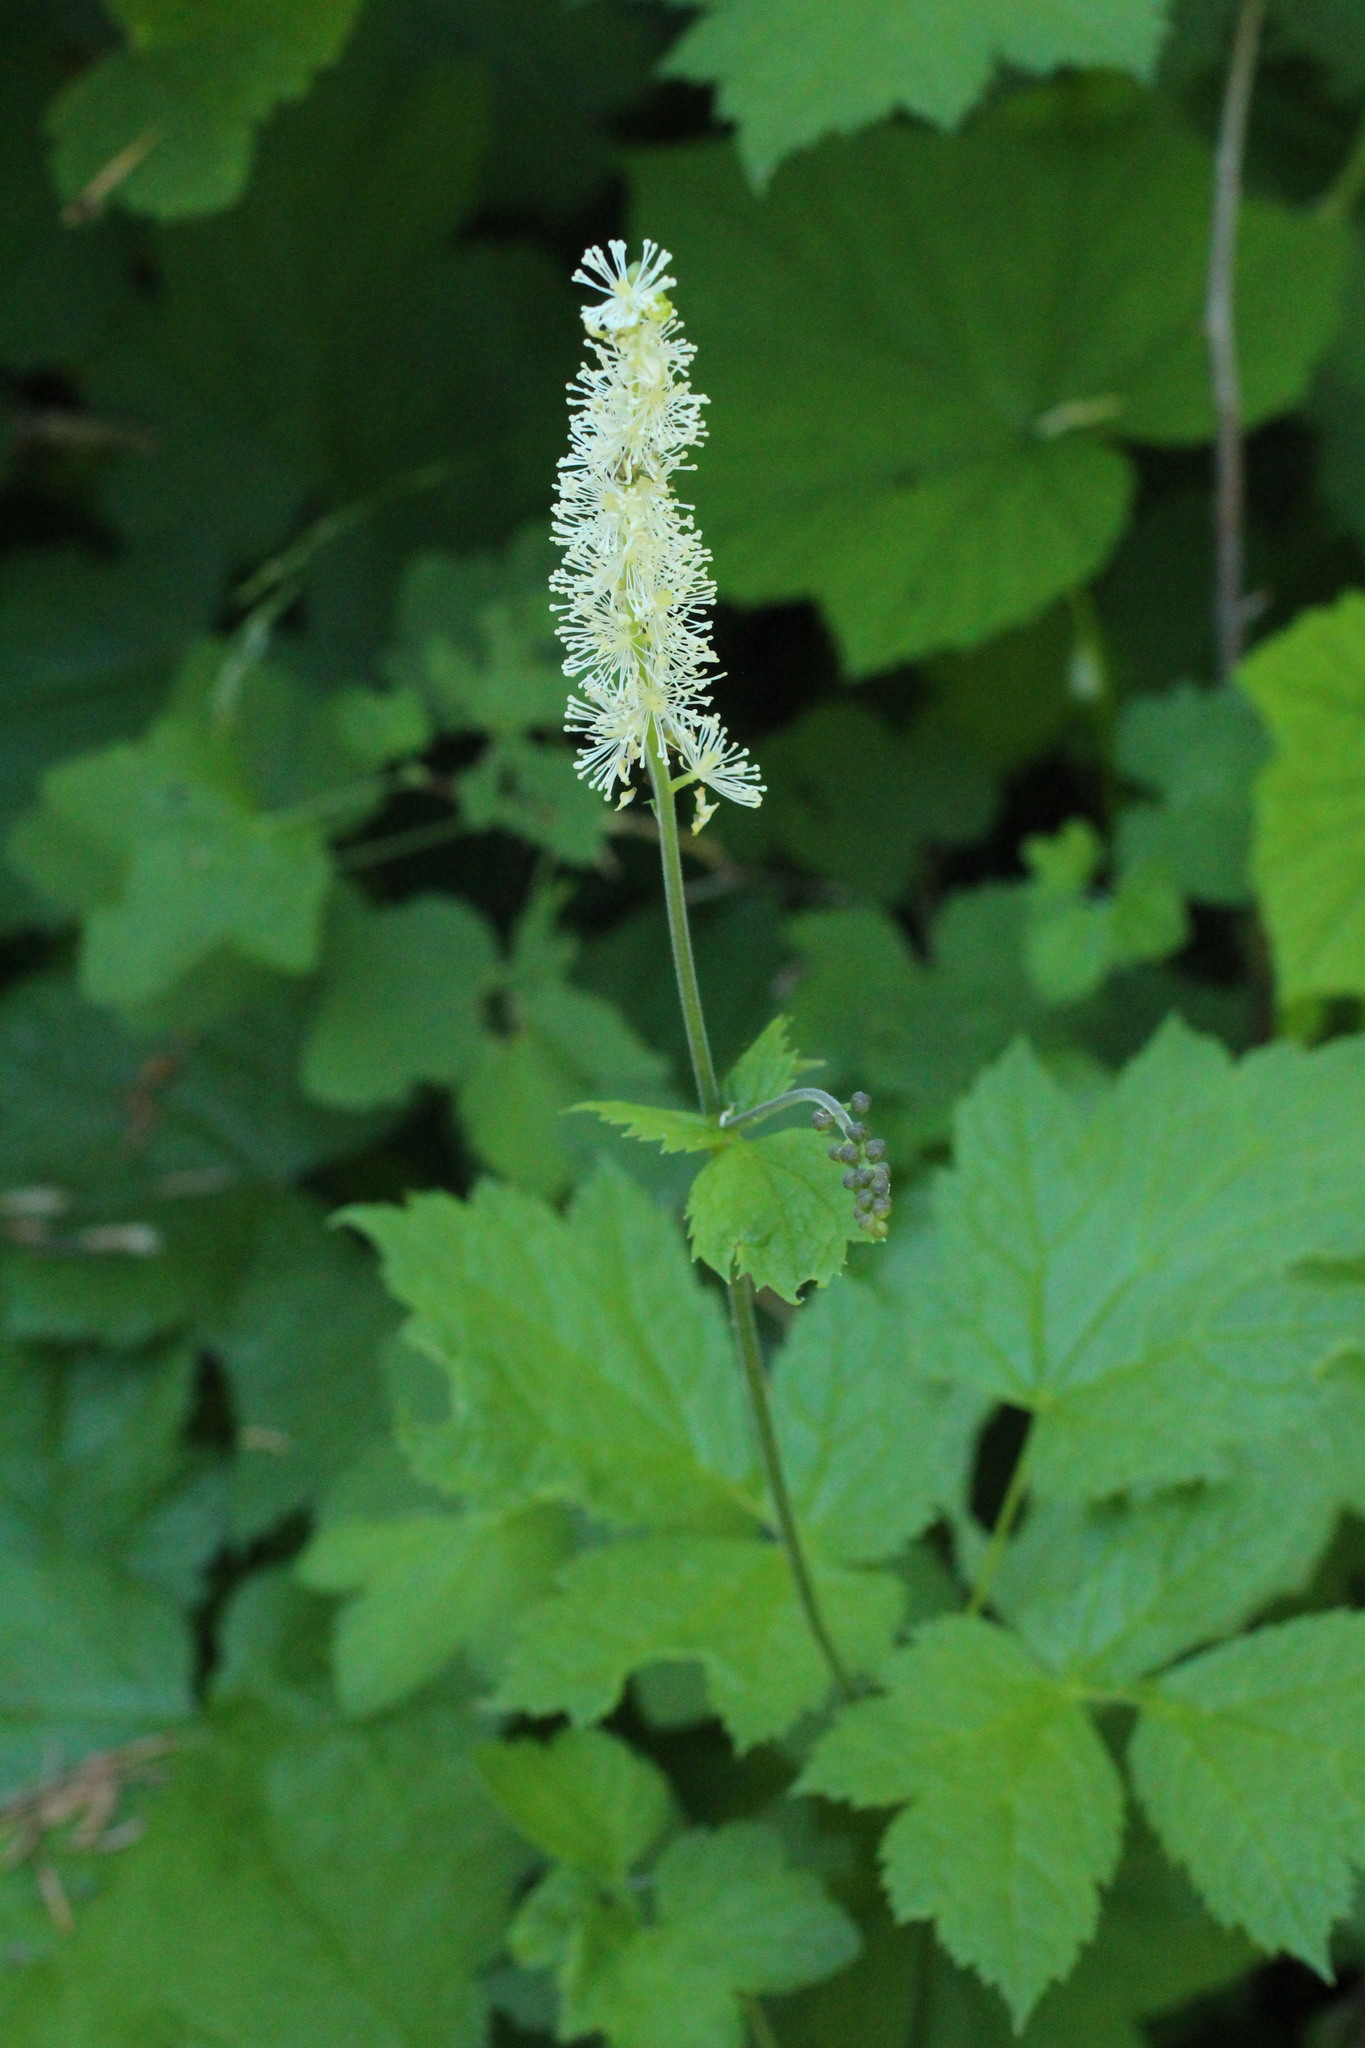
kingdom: Plantae
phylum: Tracheophyta
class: Magnoliopsida
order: Ranunculales
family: Ranunculaceae
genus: Actaea
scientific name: Actaea rubra
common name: Red baneberry
